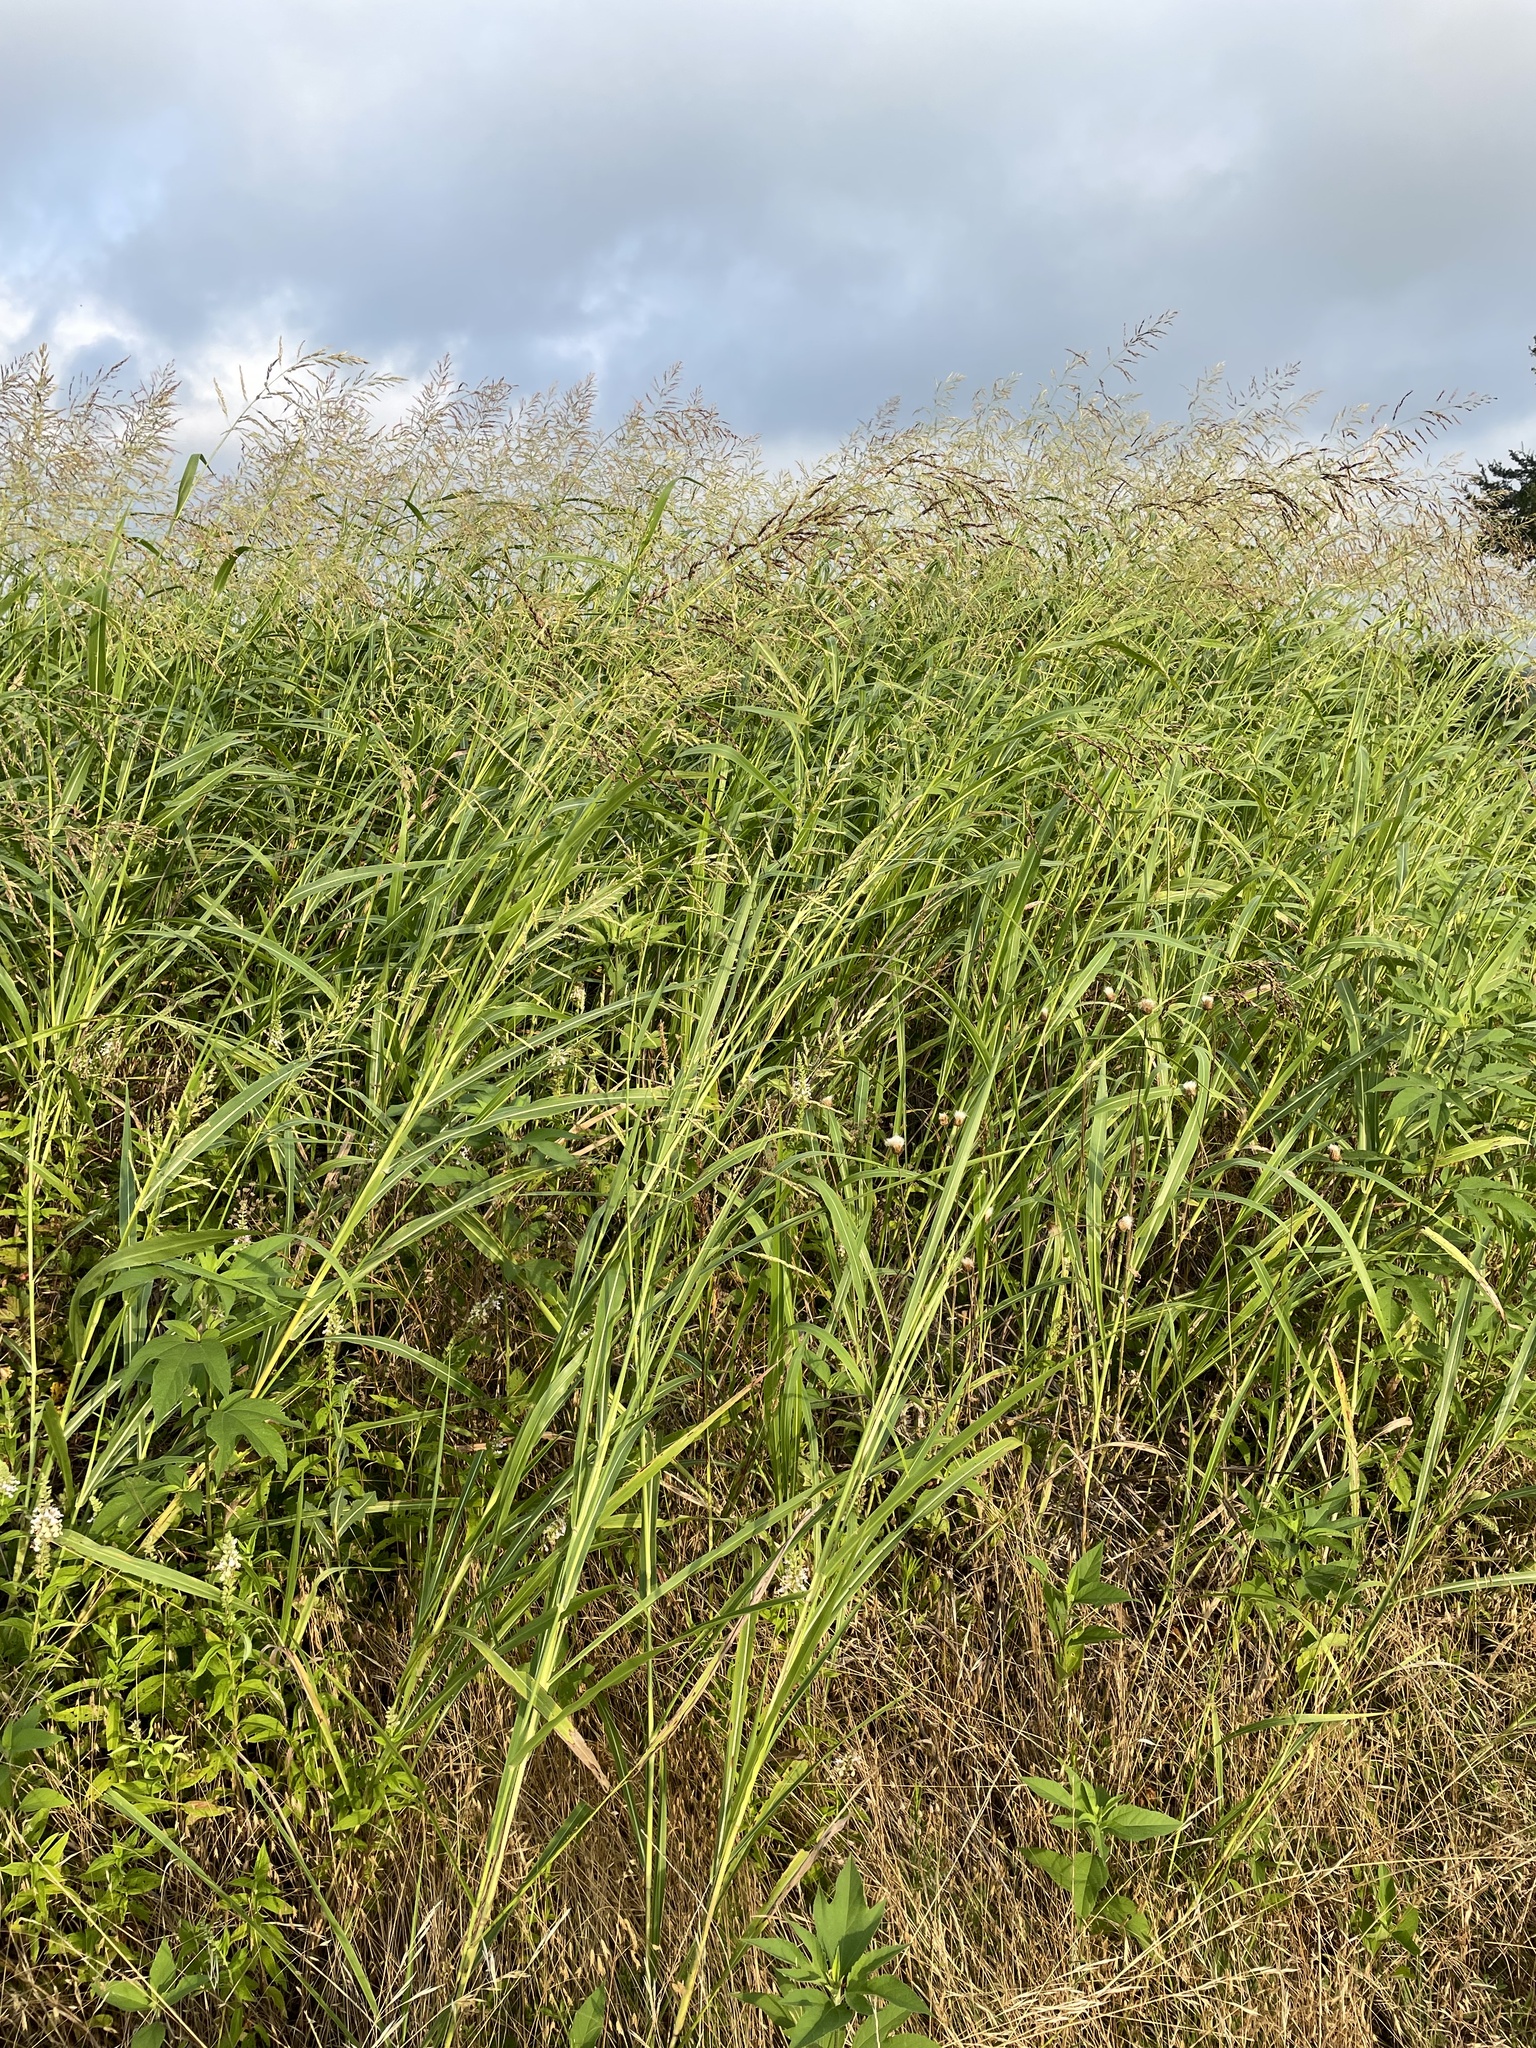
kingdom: Plantae
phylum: Tracheophyta
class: Liliopsida
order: Poales
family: Poaceae
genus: Sorghum
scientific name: Sorghum halepense
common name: Johnson-grass
